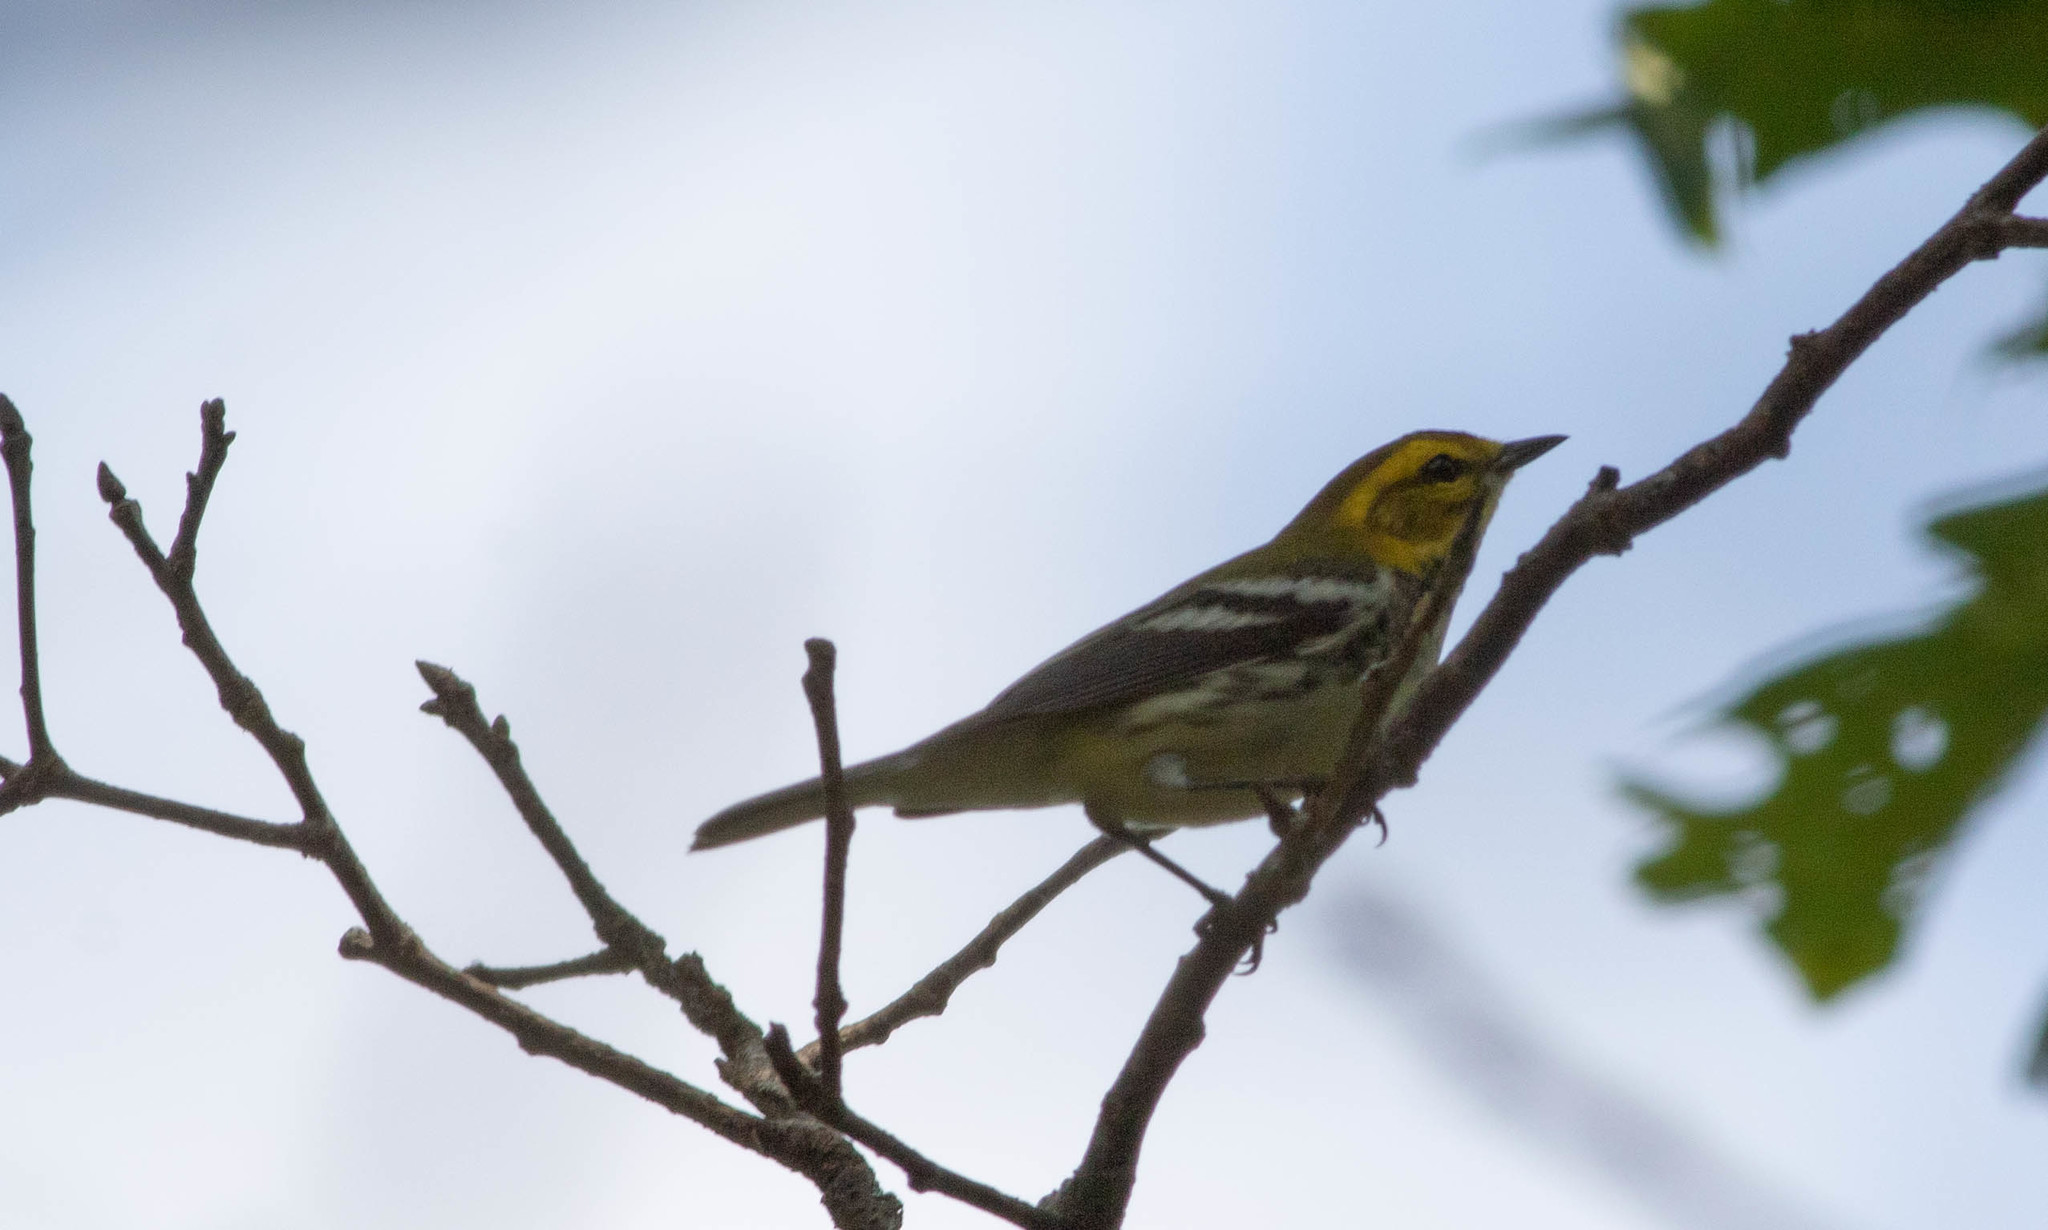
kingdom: Animalia
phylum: Chordata
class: Aves
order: Passeriformes
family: Parulidae
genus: Setophaga
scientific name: Setophaga virens
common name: Black-throated green warbler
